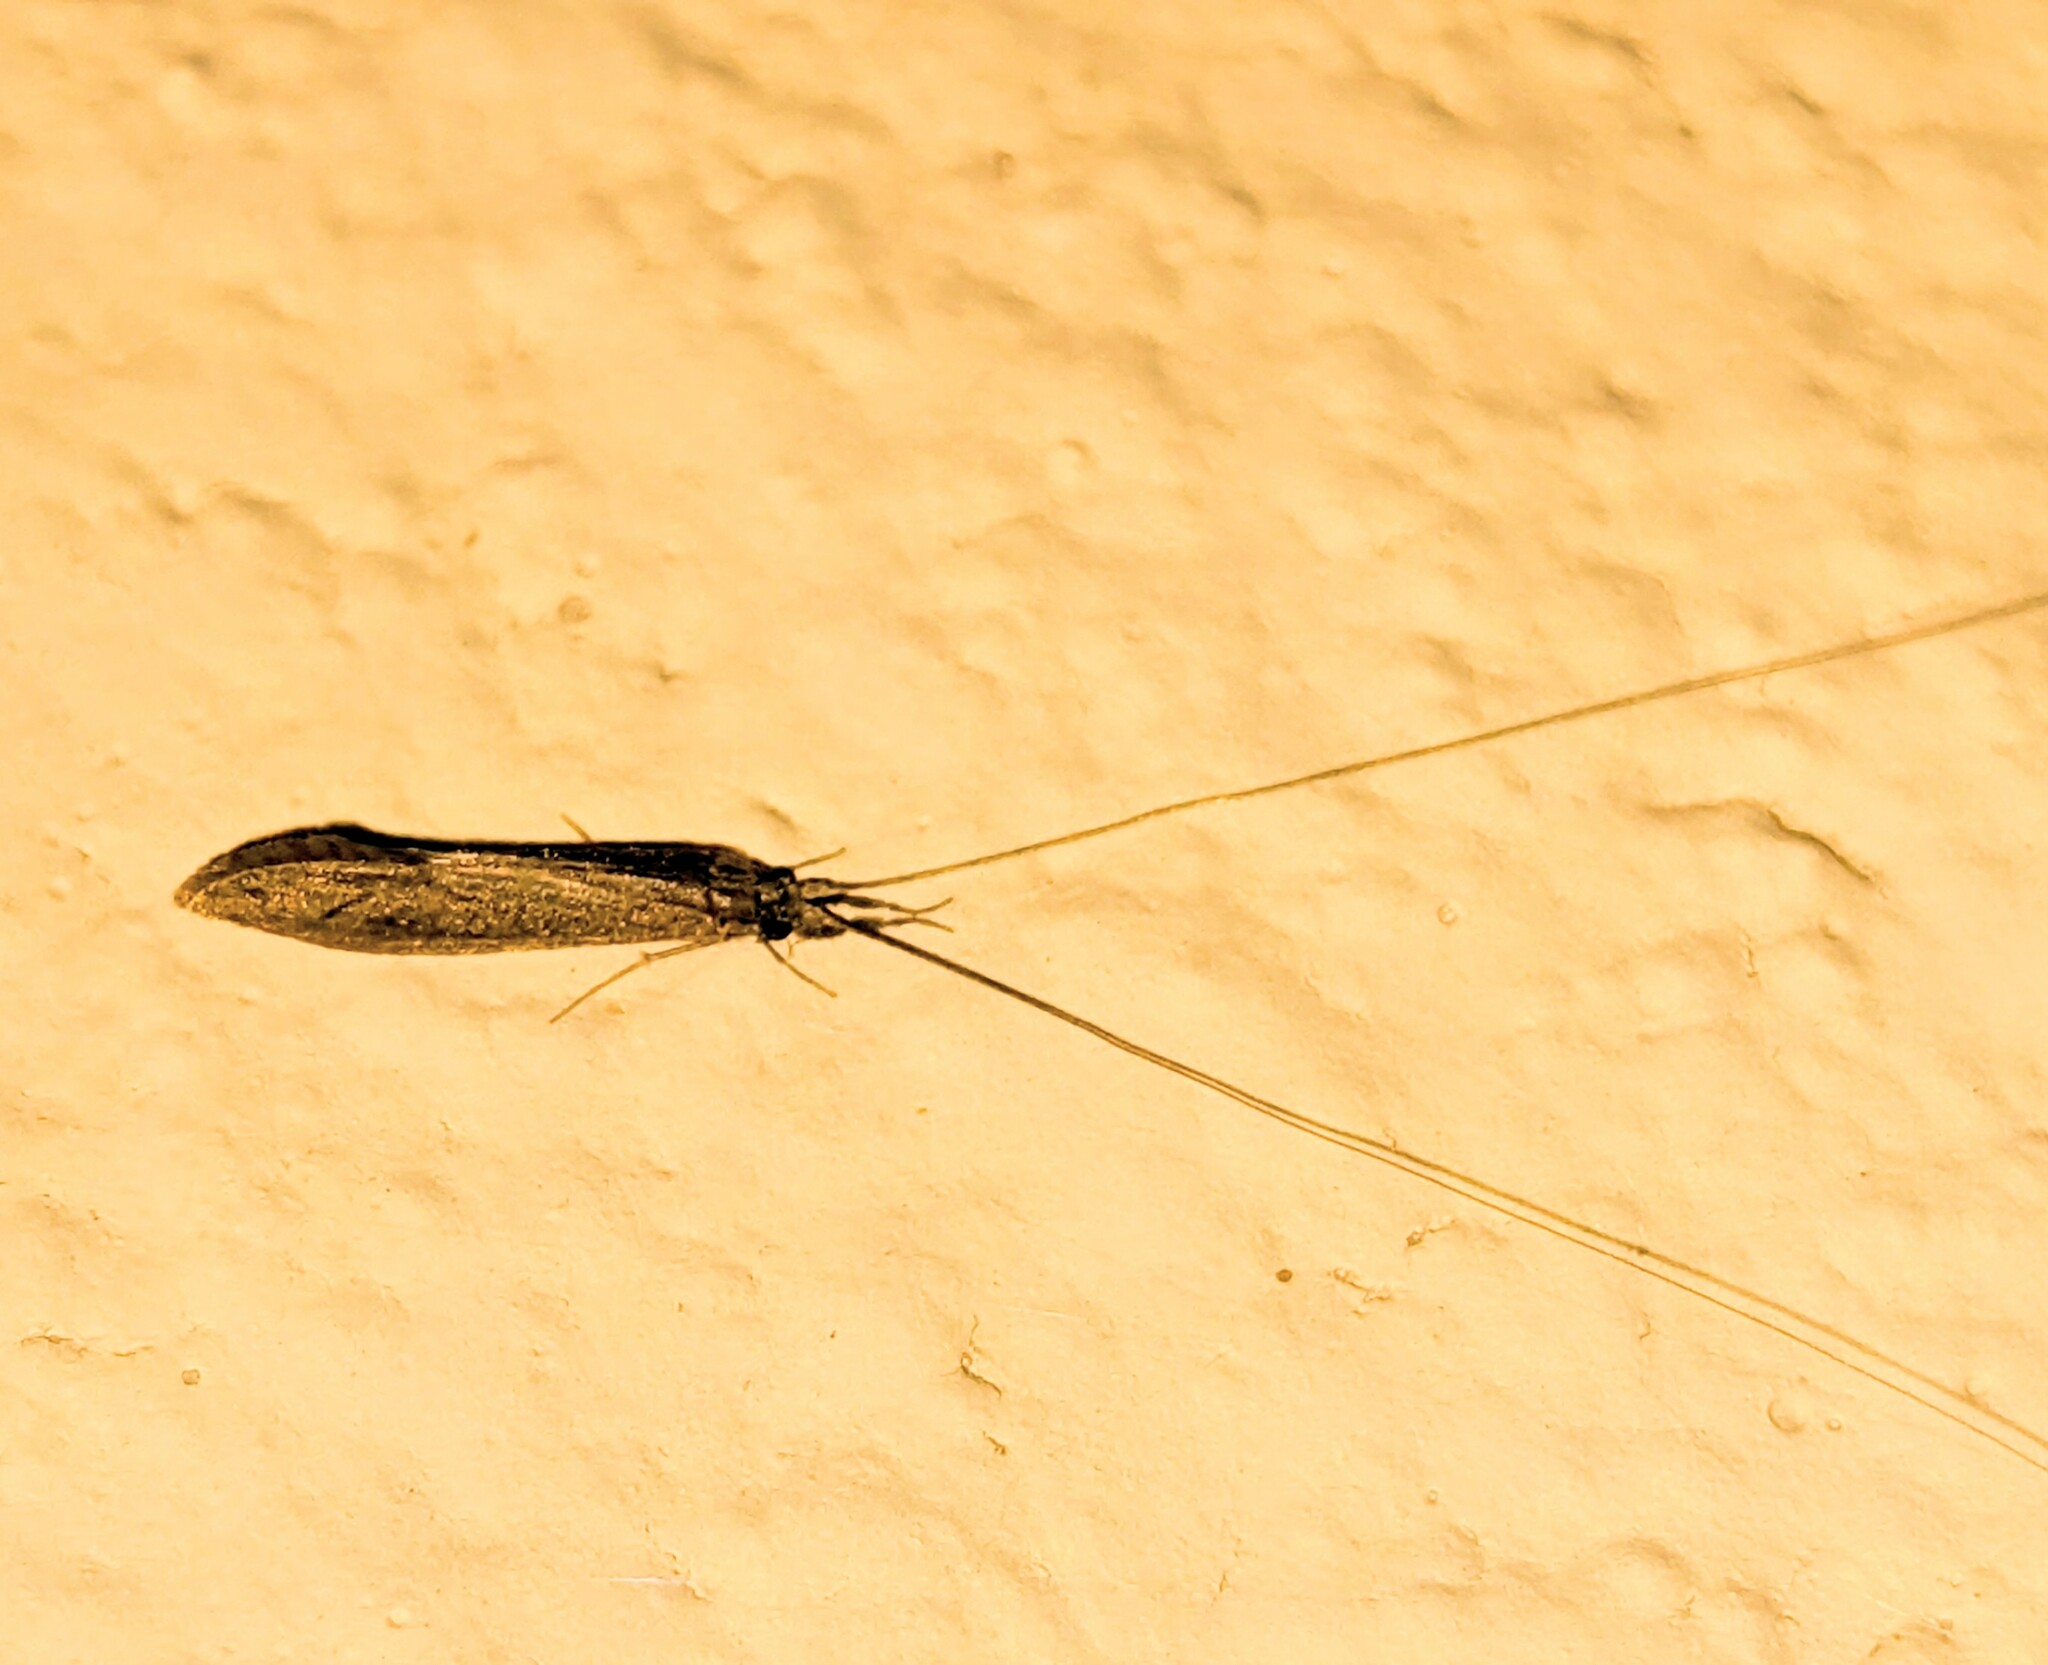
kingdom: Animalia
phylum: Arthropoda
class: Insecta
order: Trichoptera
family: Leptoceridae
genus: Leptocerus
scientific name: Leptocerus americanus
